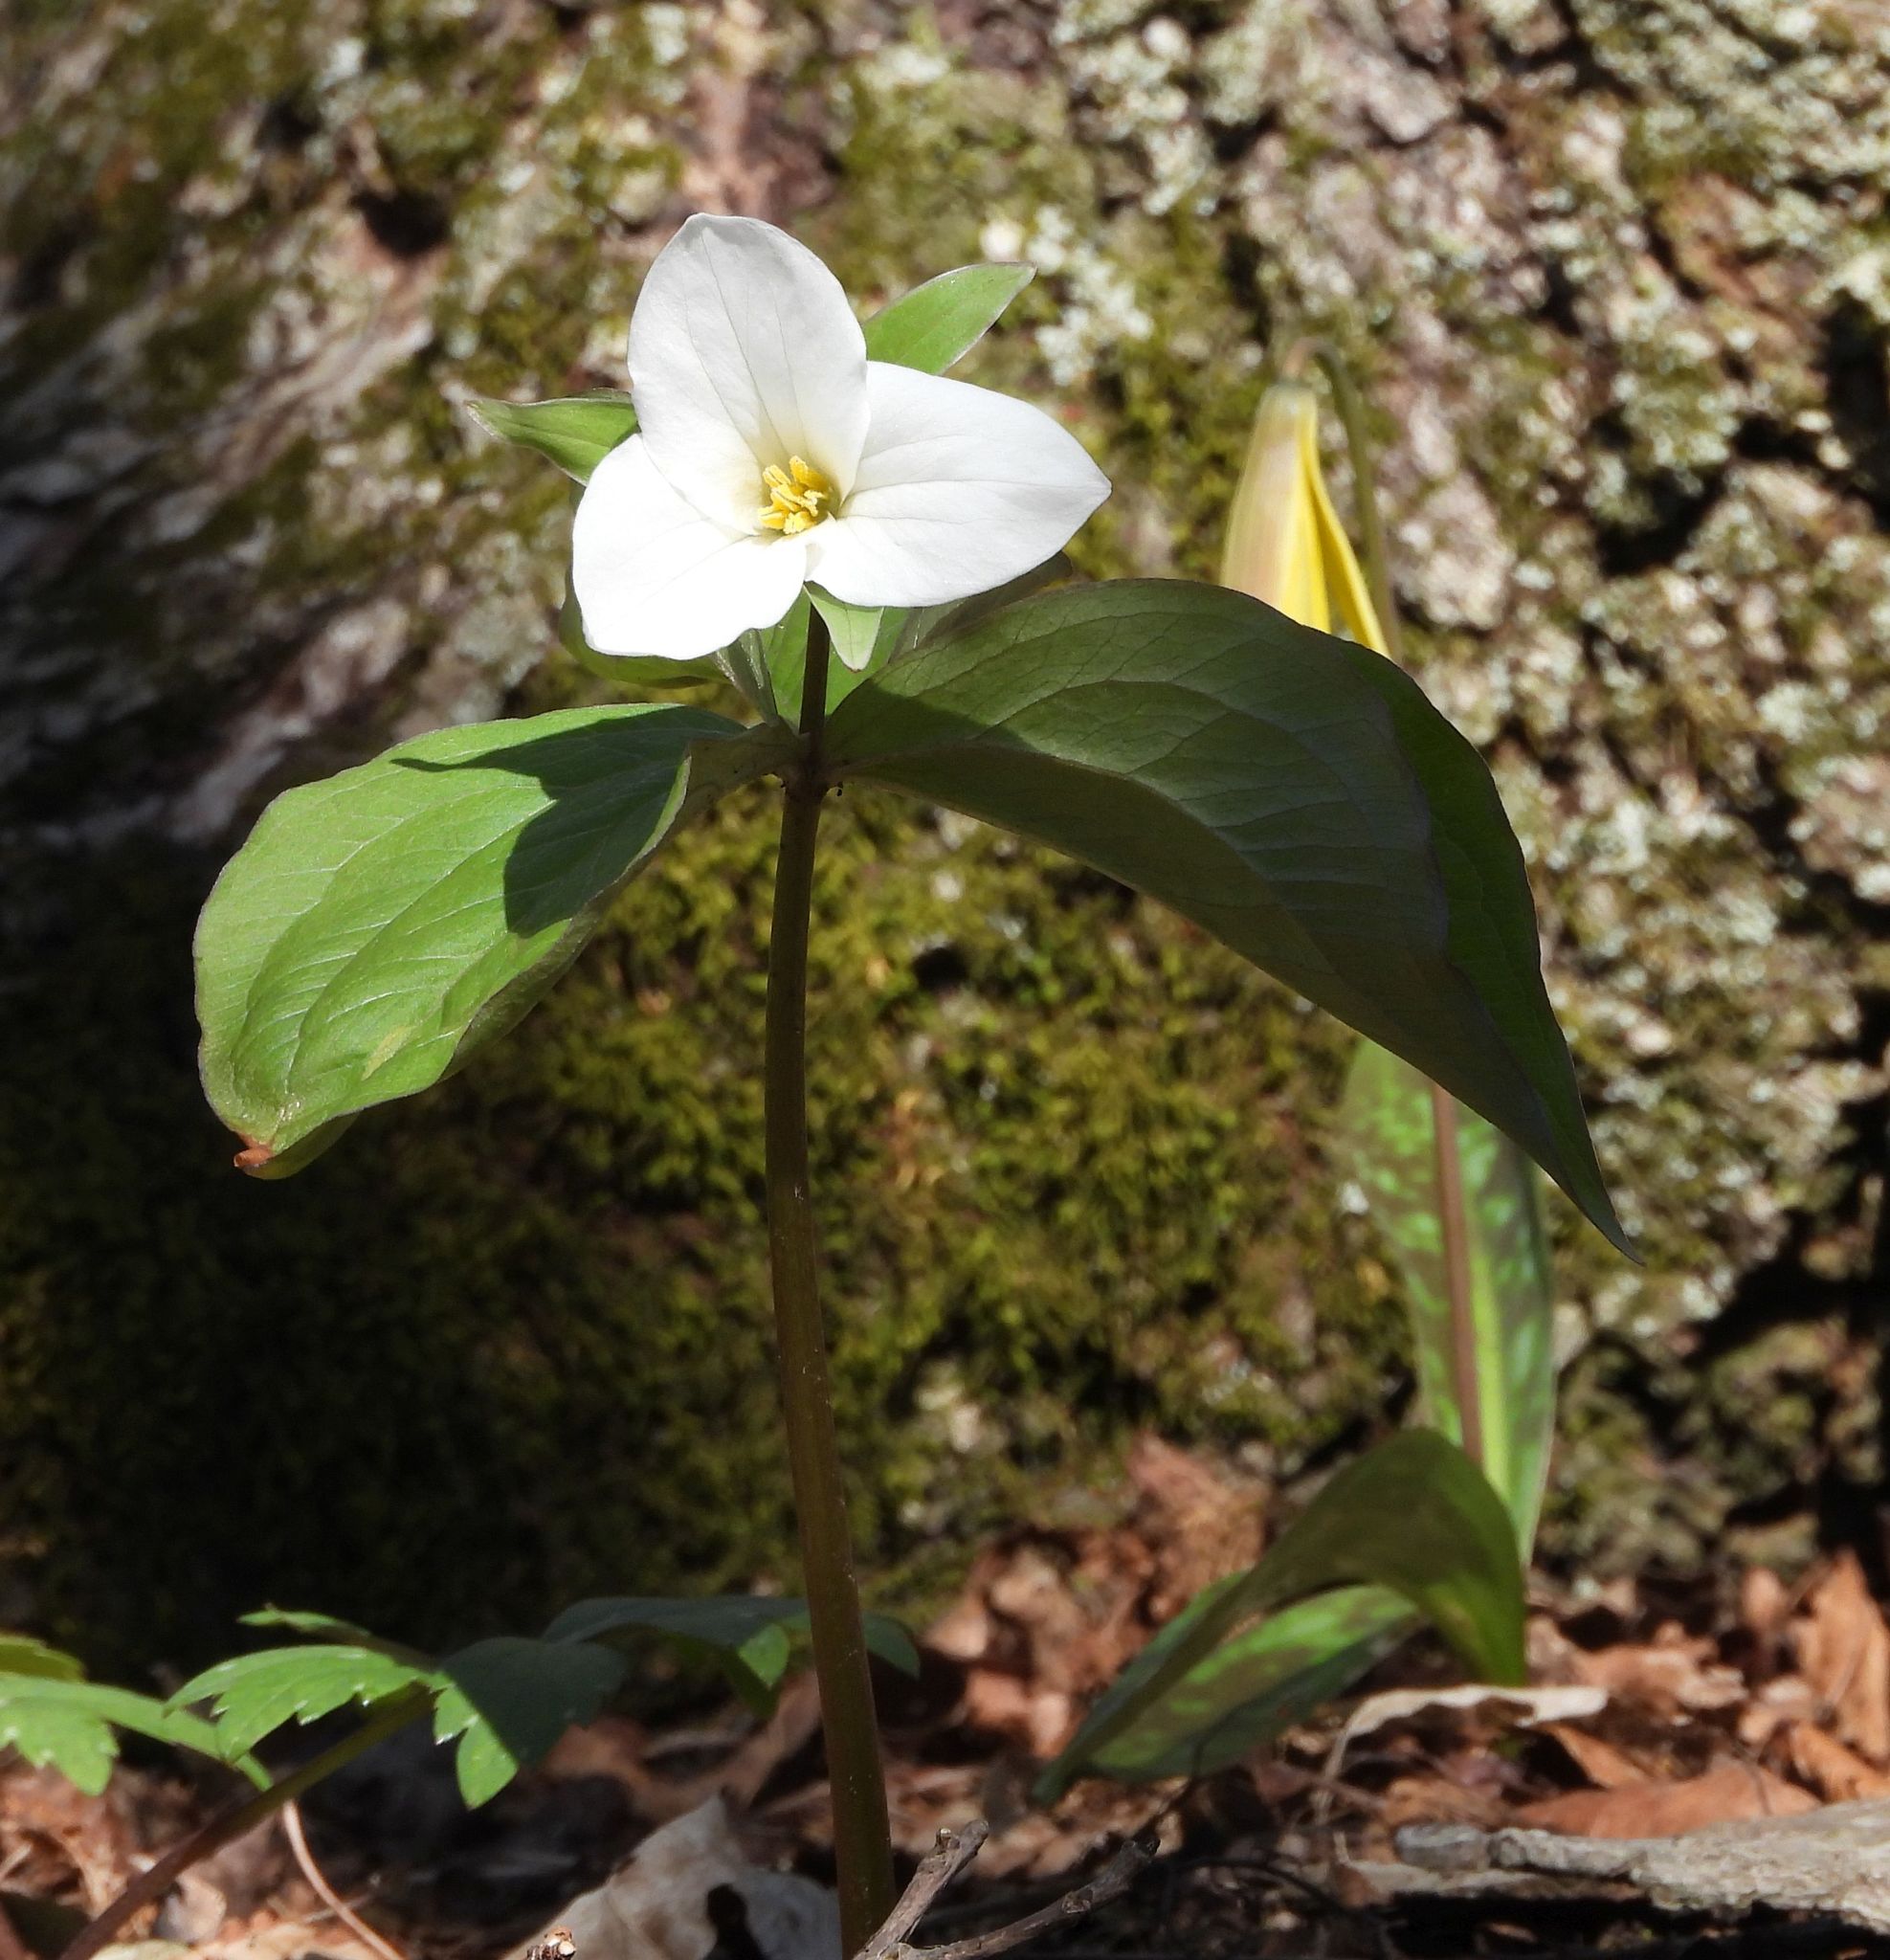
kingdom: Plantae
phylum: Tracheophyta
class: Liliopsida
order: Liliales
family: Melanthiaceae
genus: Trillium
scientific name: Trillium grandiflorum
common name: Great white trillium
